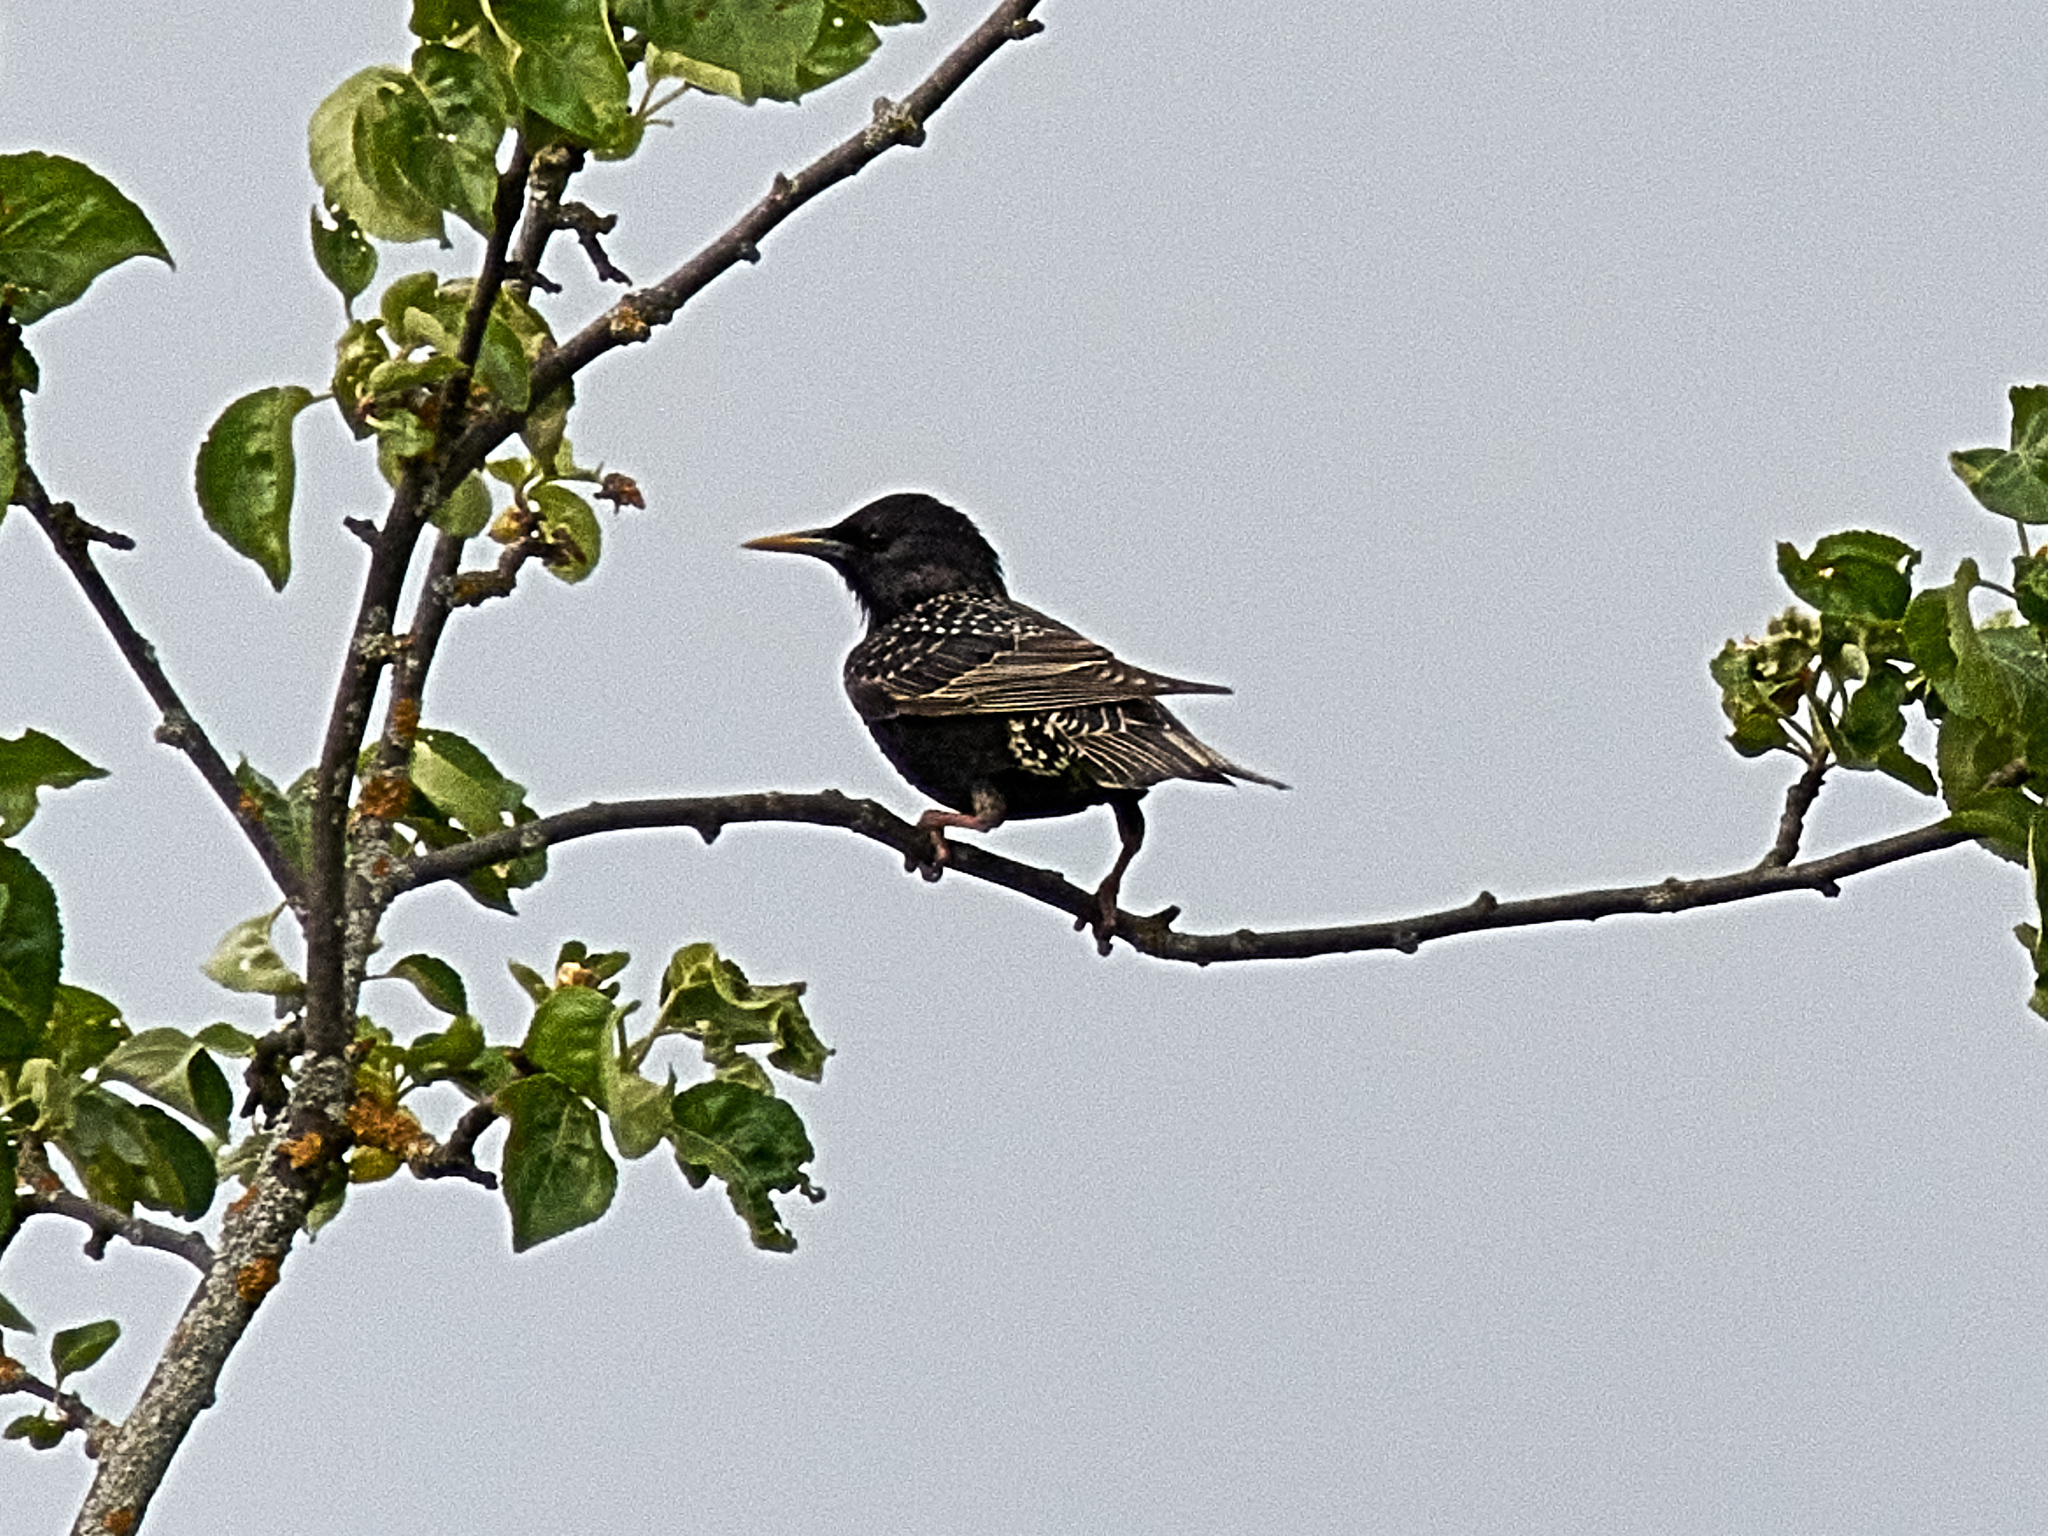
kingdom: Animalia
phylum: Chordata
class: Aves
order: Passeriformes
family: Sturnidae
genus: Sturnus
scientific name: Sturnus vulgaris
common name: Common starling
